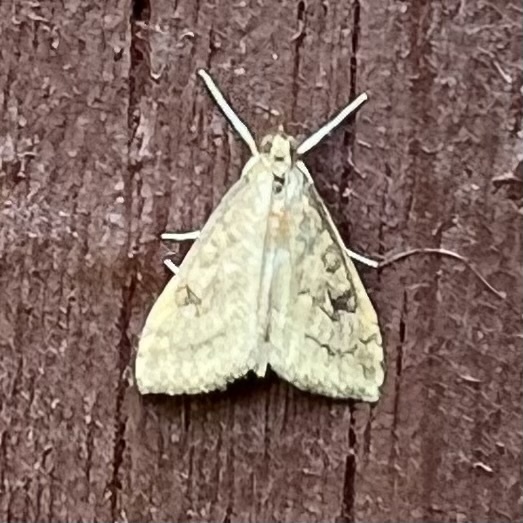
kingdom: Animalia
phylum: Arthropoda
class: Insecta
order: Lepidoptera
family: Crambidae
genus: Udea
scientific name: Udea rubigalis
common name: Celery leaftier moth
